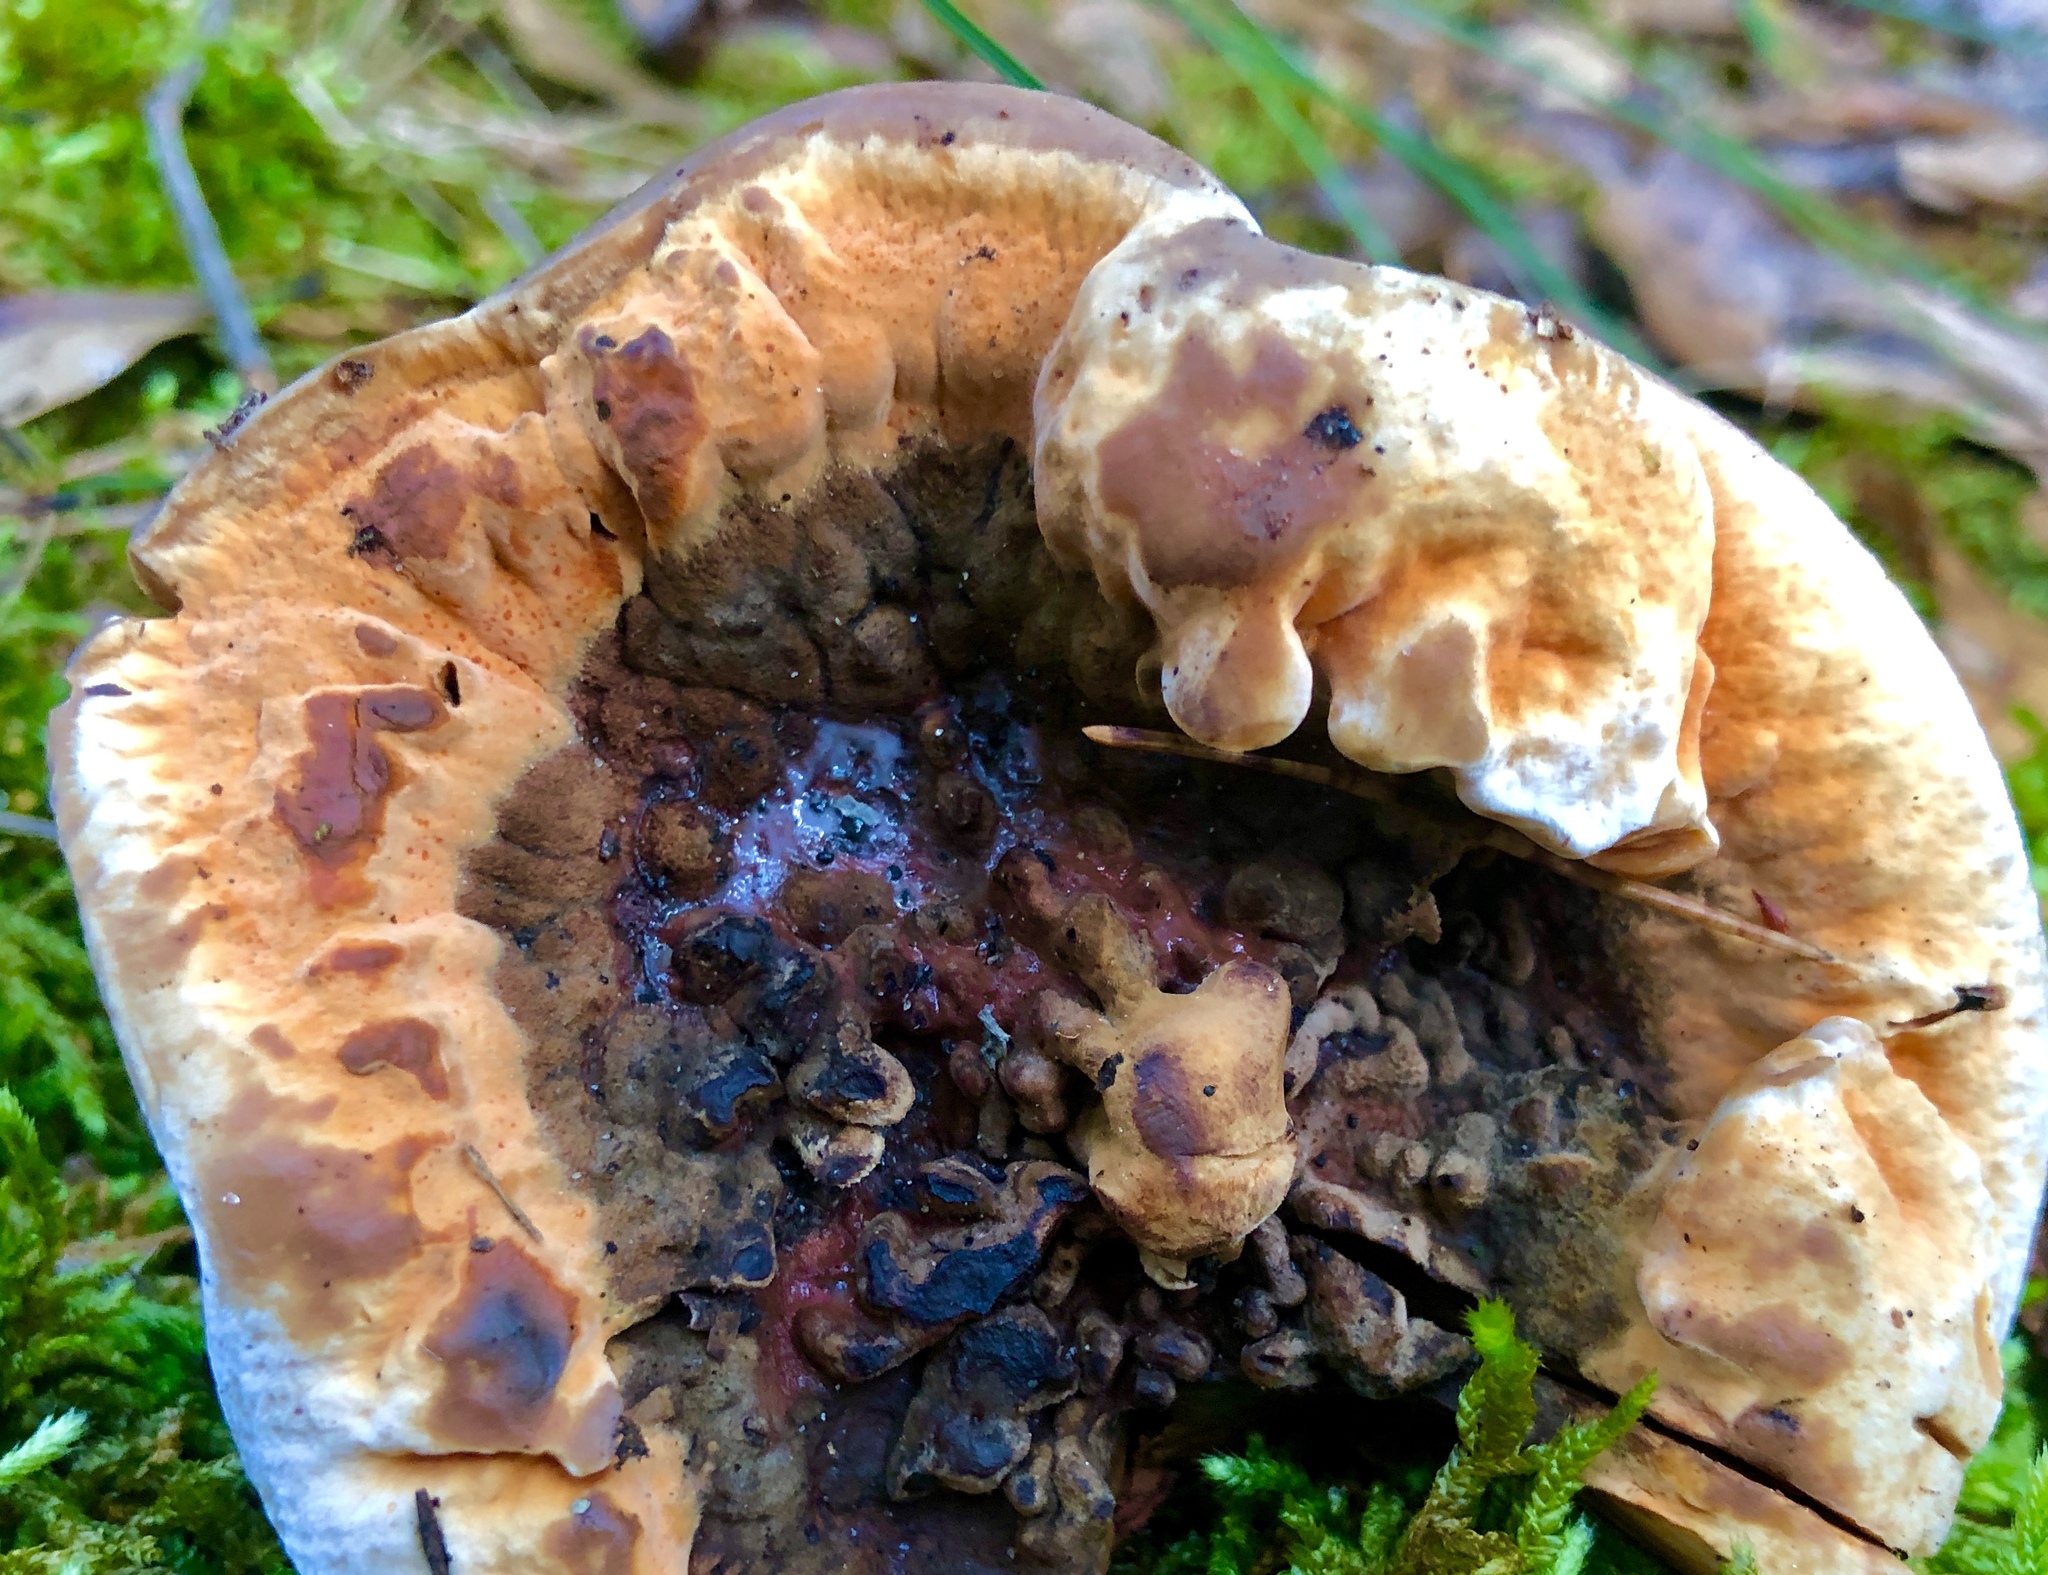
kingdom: Fungi
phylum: Basidiomycota
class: Agaricomycetes
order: Thelephorales
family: Bankeraceae
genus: Hydnellum
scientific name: Hydnellum aurantiacum
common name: Orange tooth
